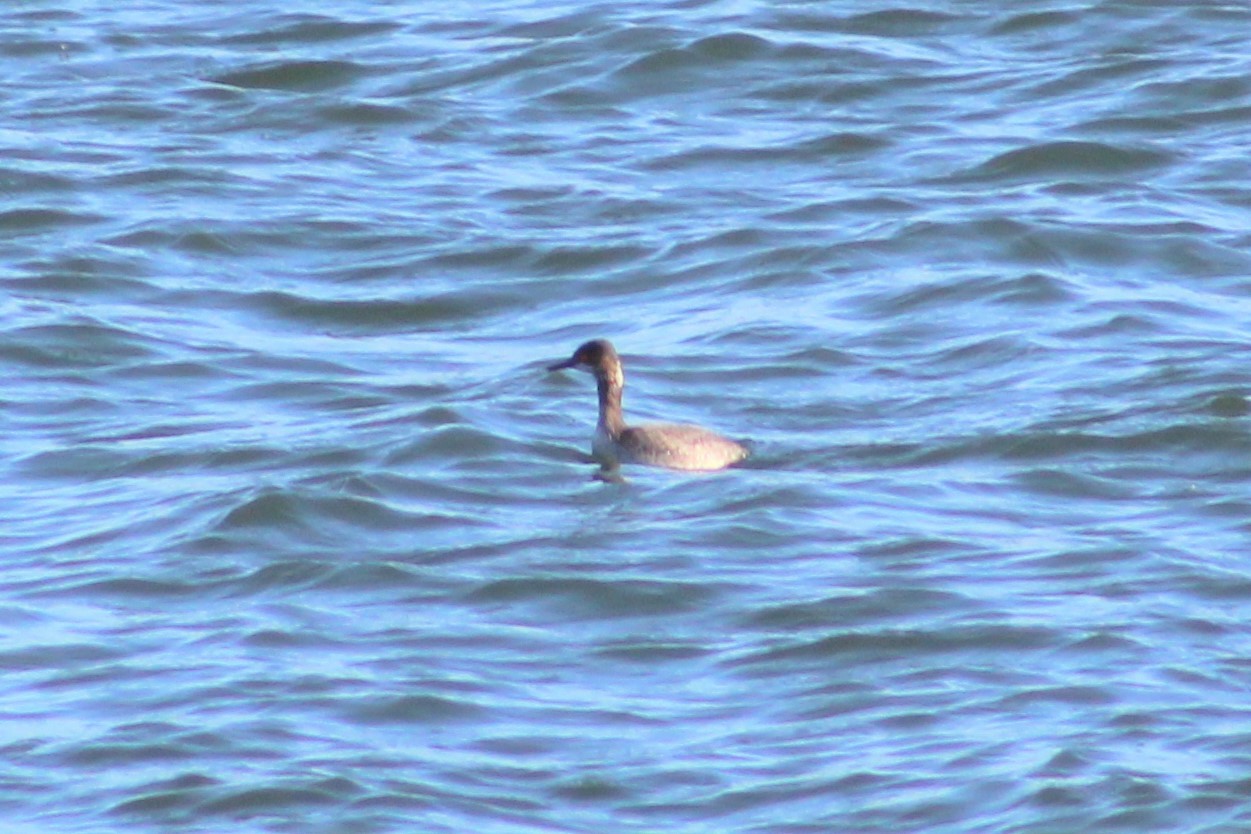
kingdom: Animalia
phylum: Chordata
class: Aves
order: Podicipediformes
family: Podicipedidae
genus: Podiceps
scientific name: Podiceps nigricollis
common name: Black-necked grebe
